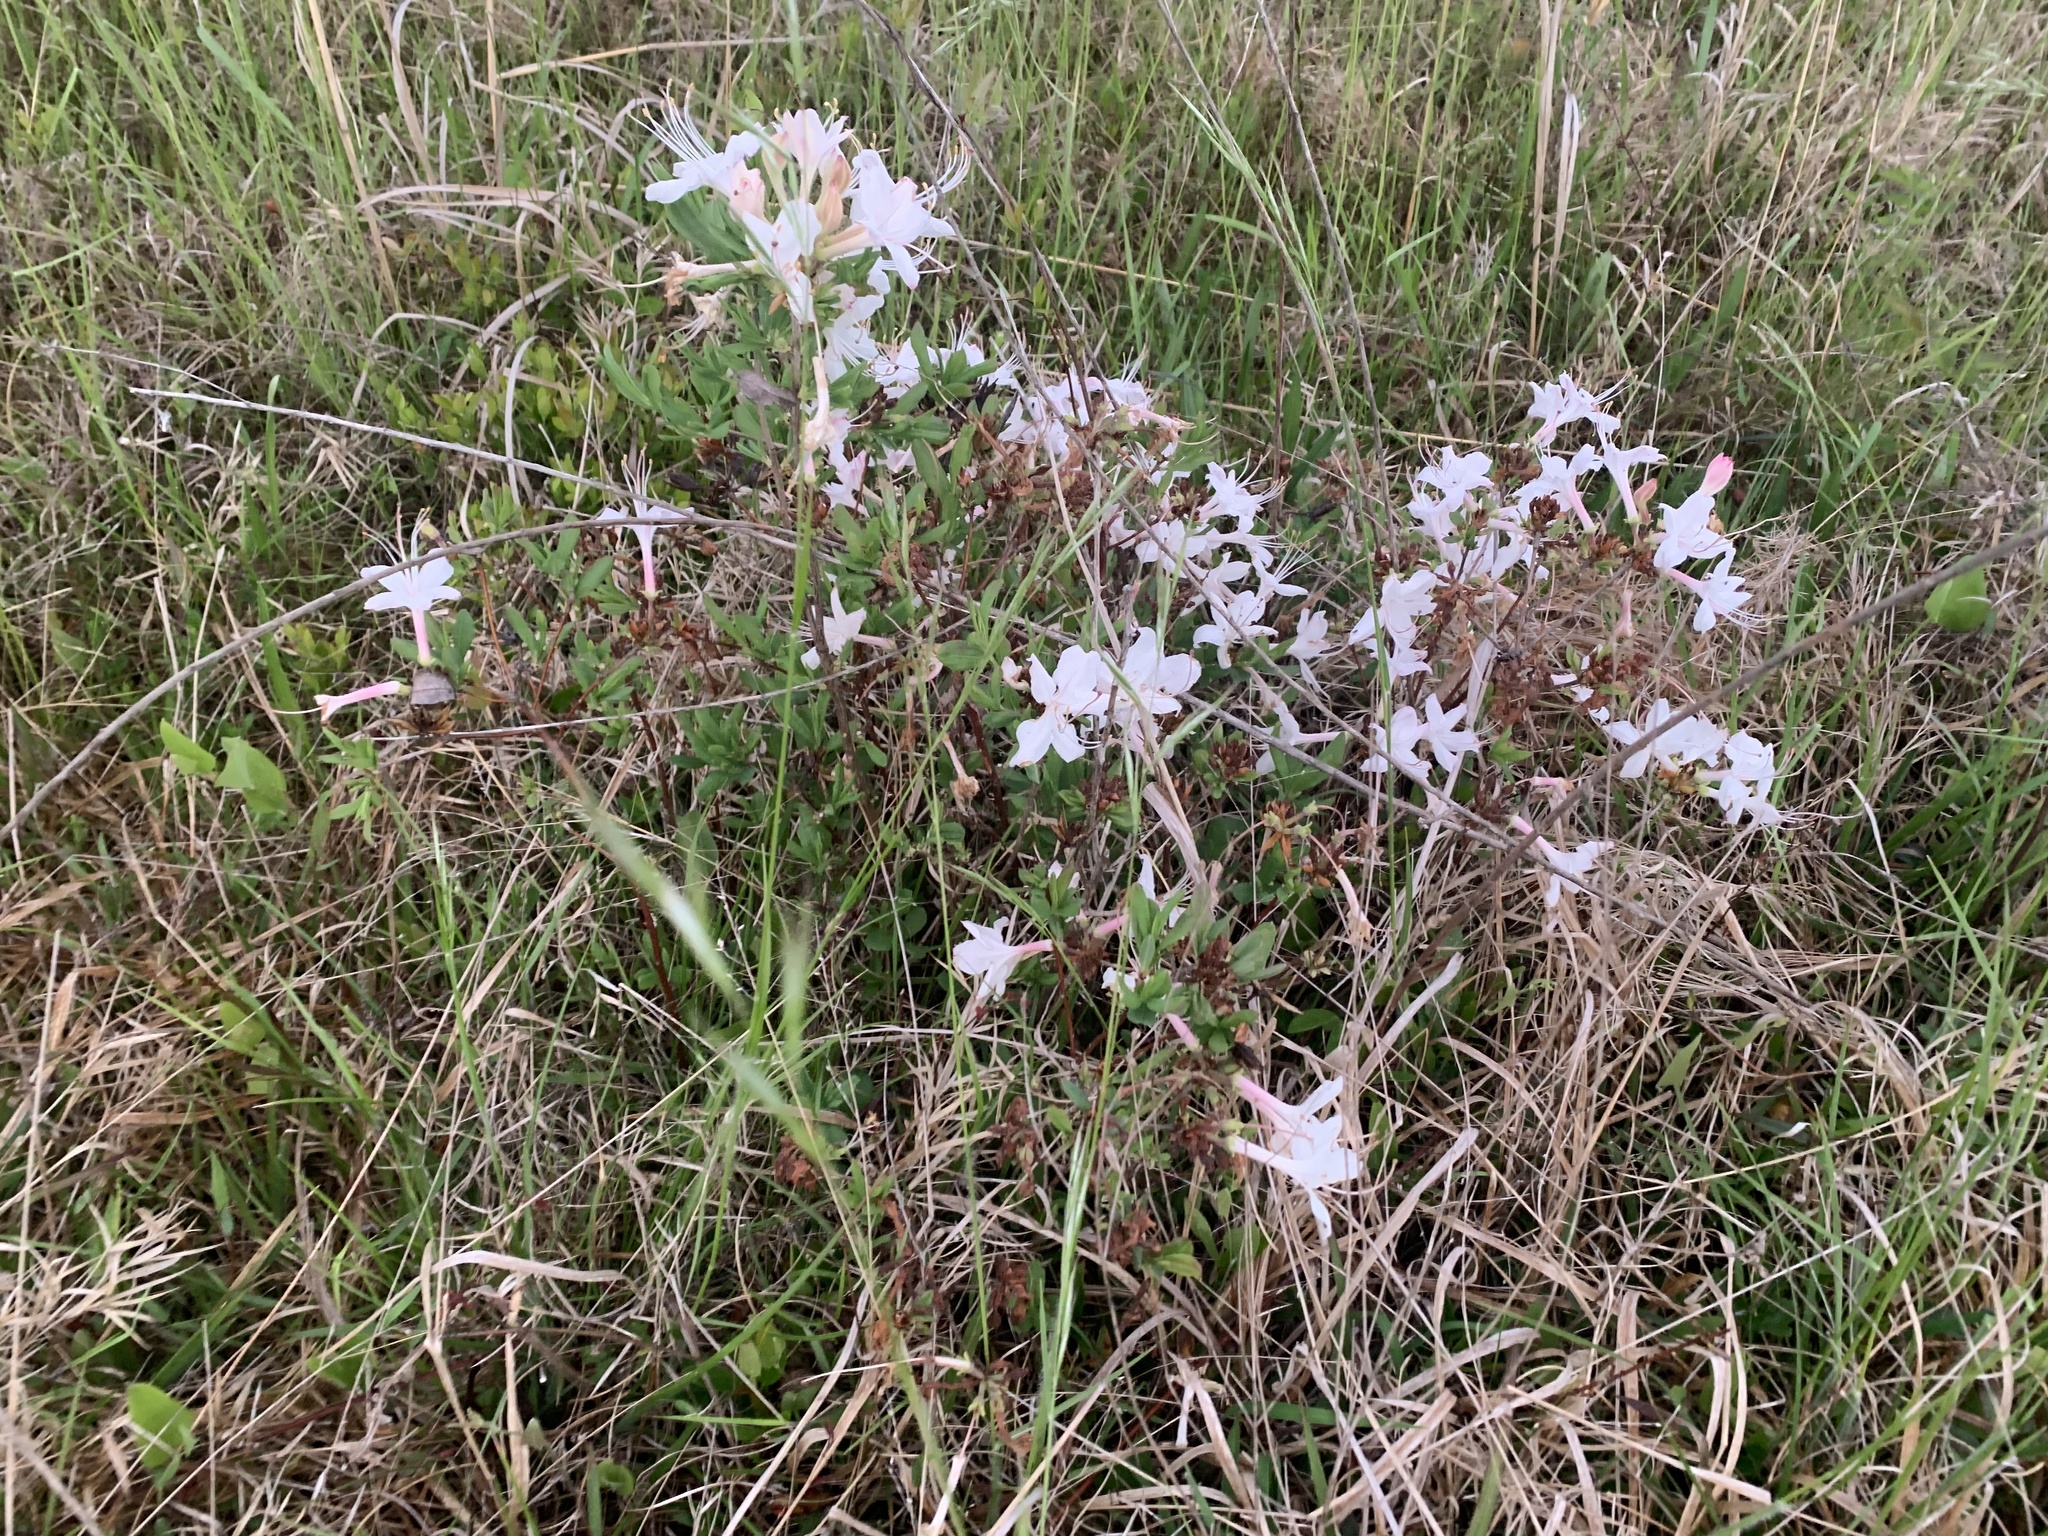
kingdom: Plantae
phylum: Tracheophyta
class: Magnoliopsida
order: Ericales
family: Ericaceae
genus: Rhododendron
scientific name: Rhododendron atlanticum
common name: Dwarf azalea
